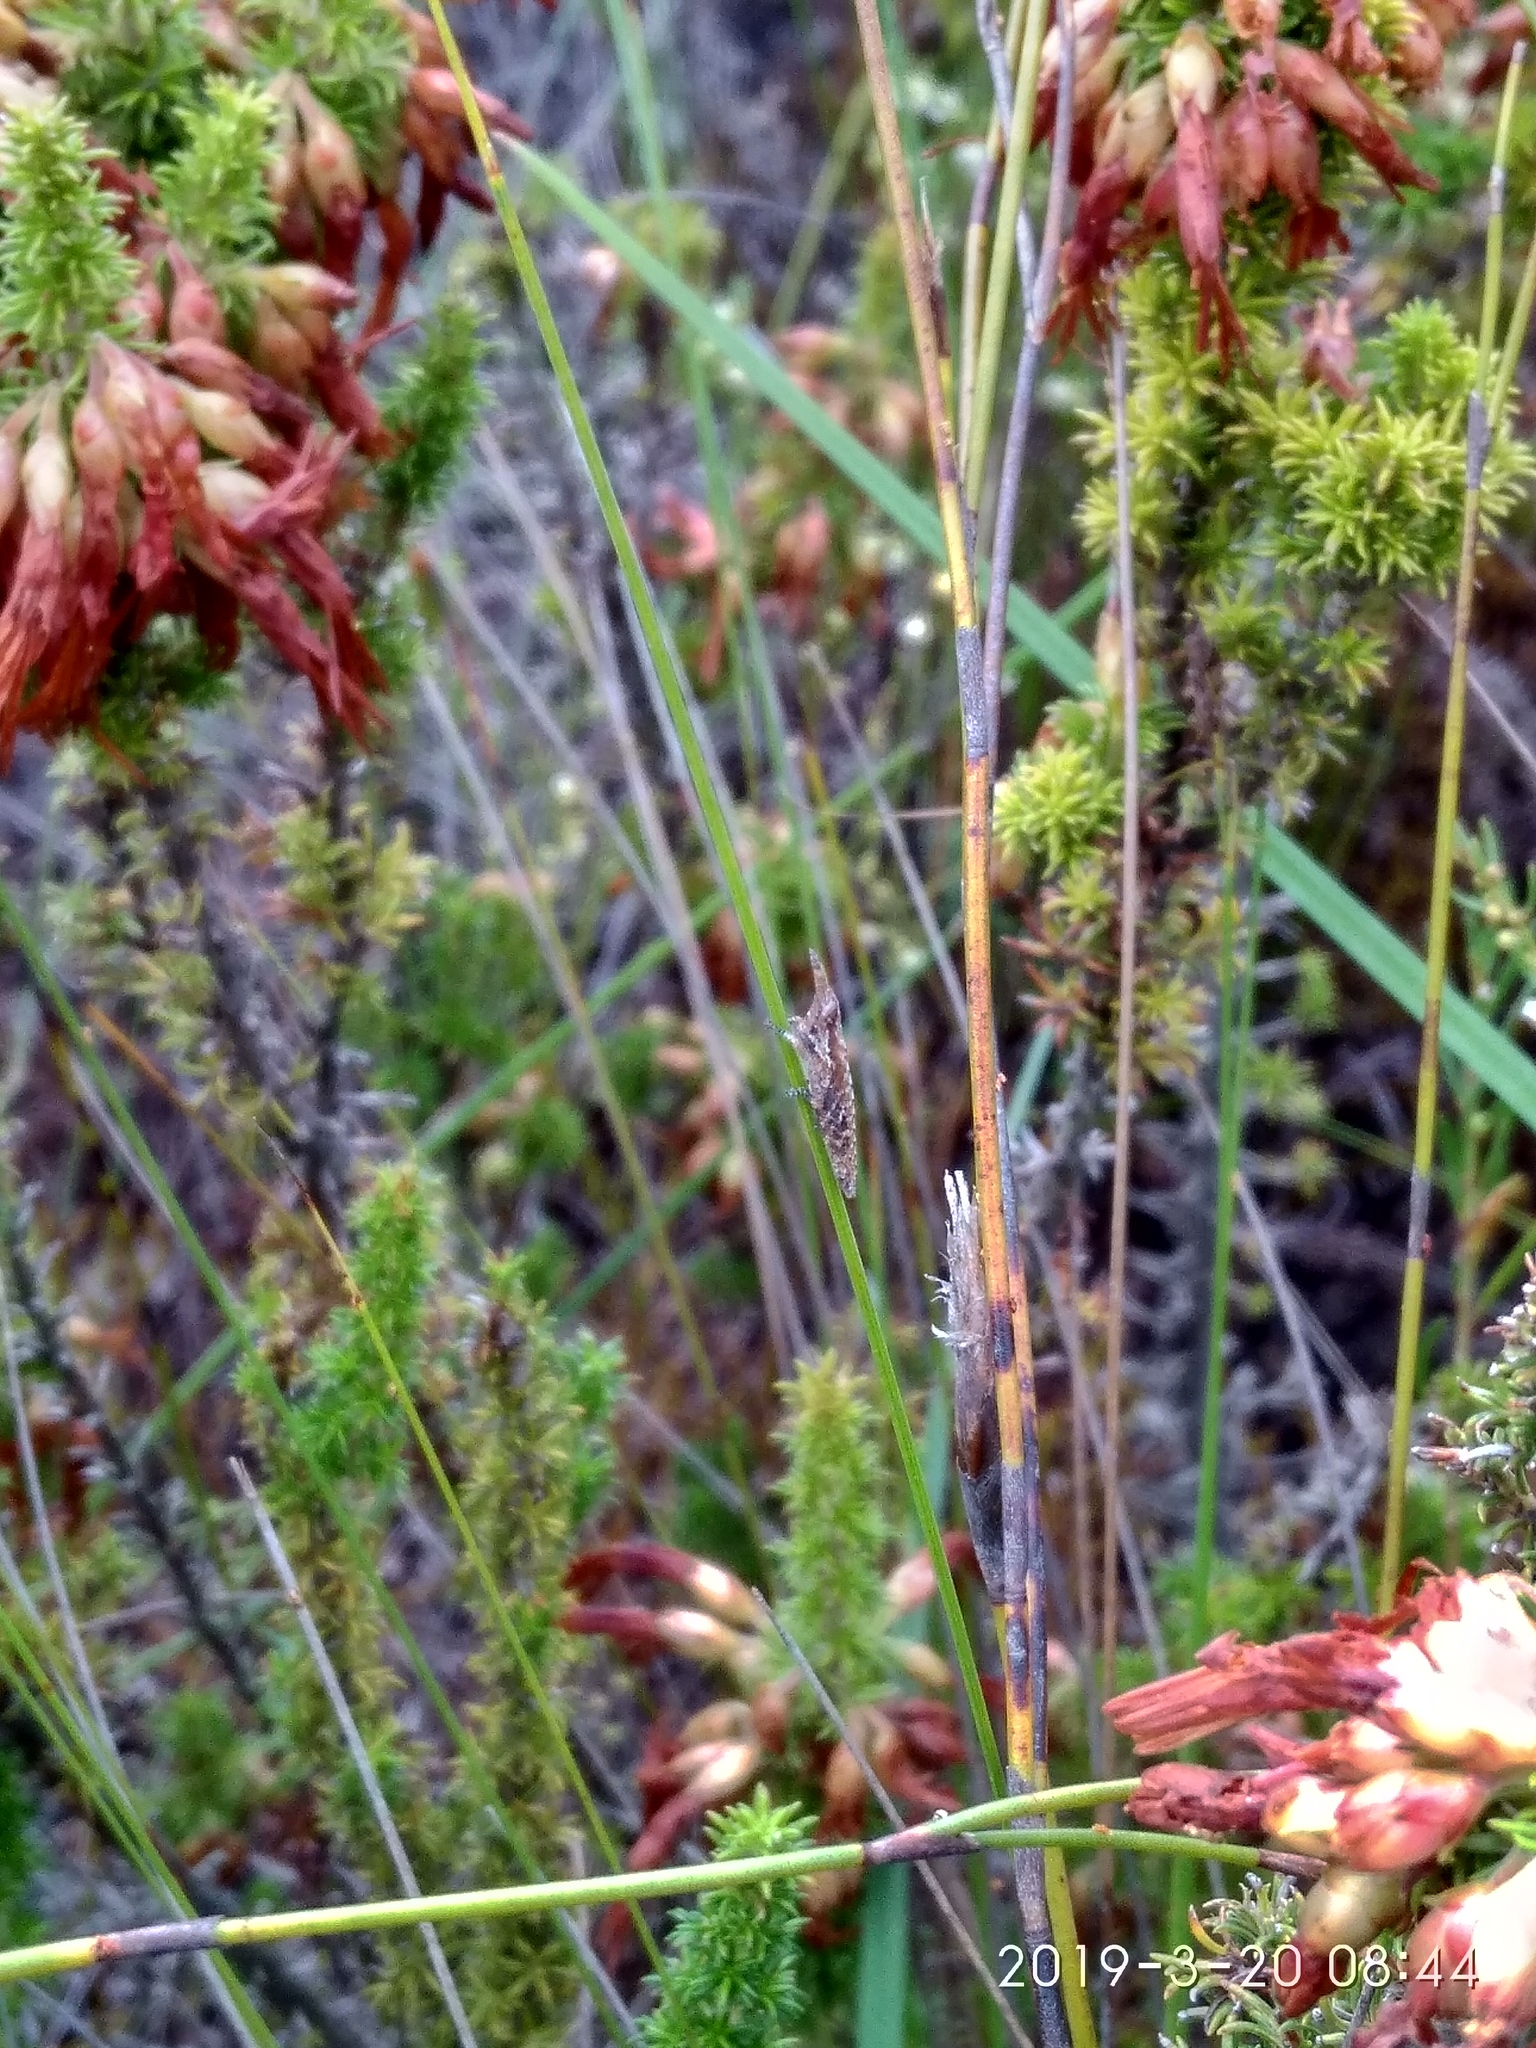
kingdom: Plantae
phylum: Tracheophyta
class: Magnoliopsida
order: Ericales
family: Ericaceae
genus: Erica
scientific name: Erica coccinea
